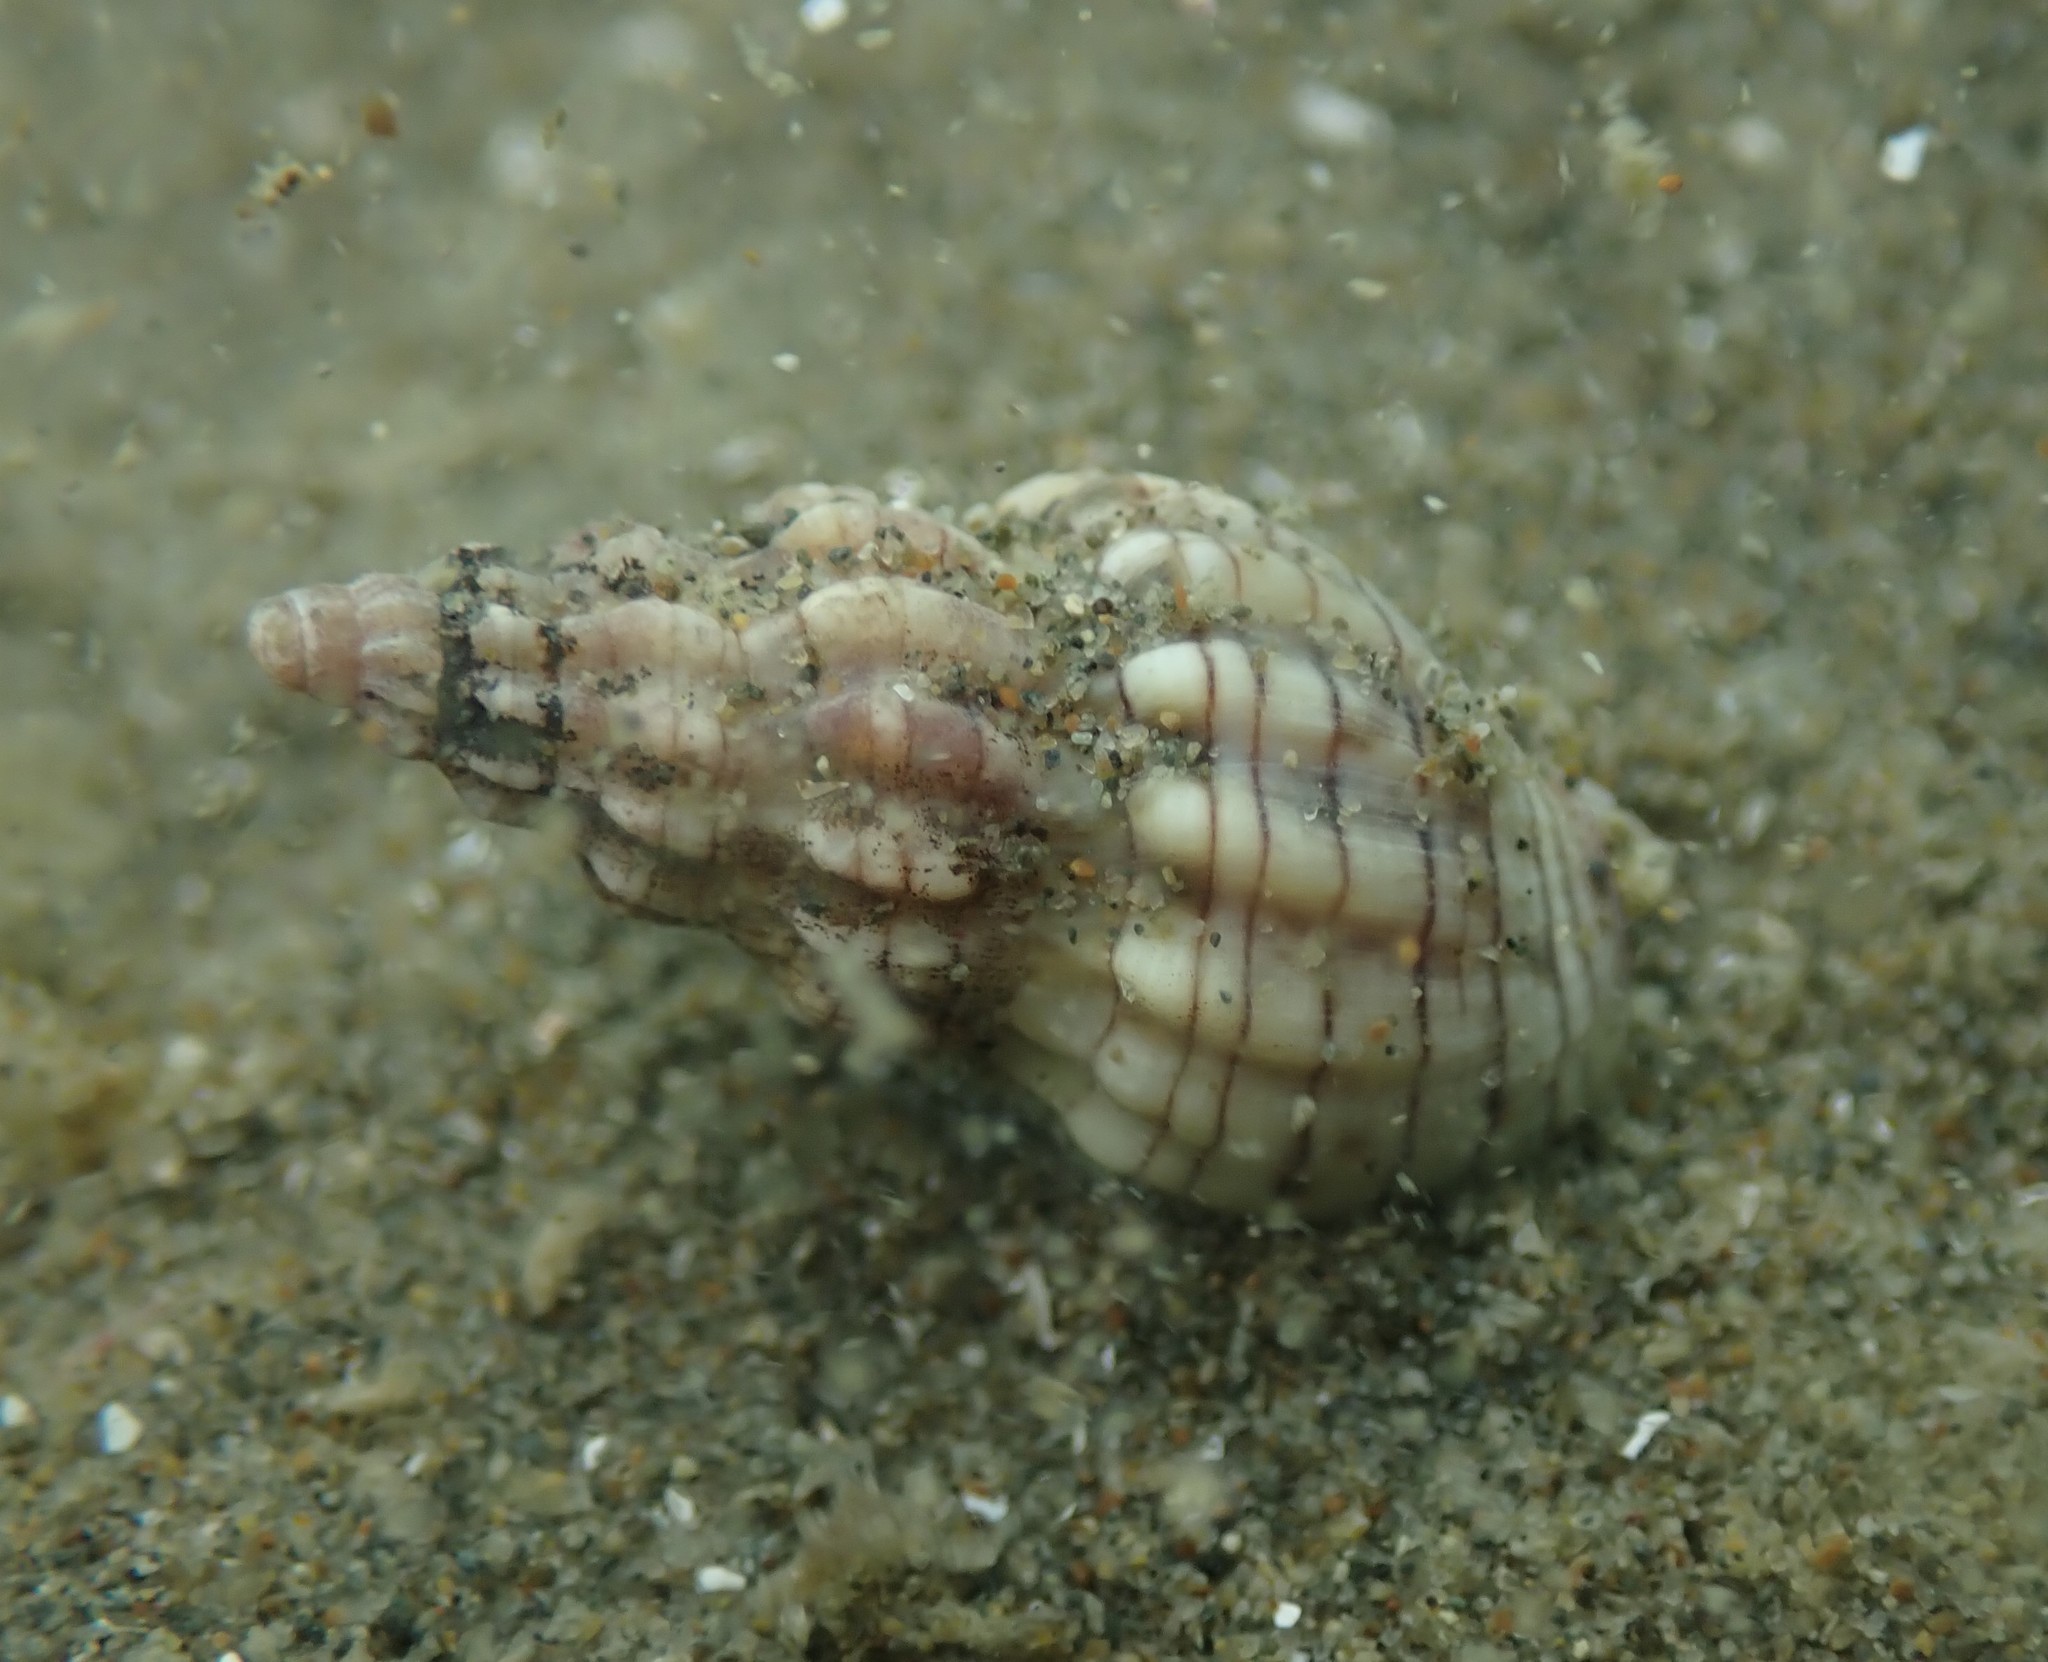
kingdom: Animalia
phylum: Mollusca
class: Gastropoda
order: Neogastropoda
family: Cominellidae
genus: Cominella
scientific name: Cominella quoyana
